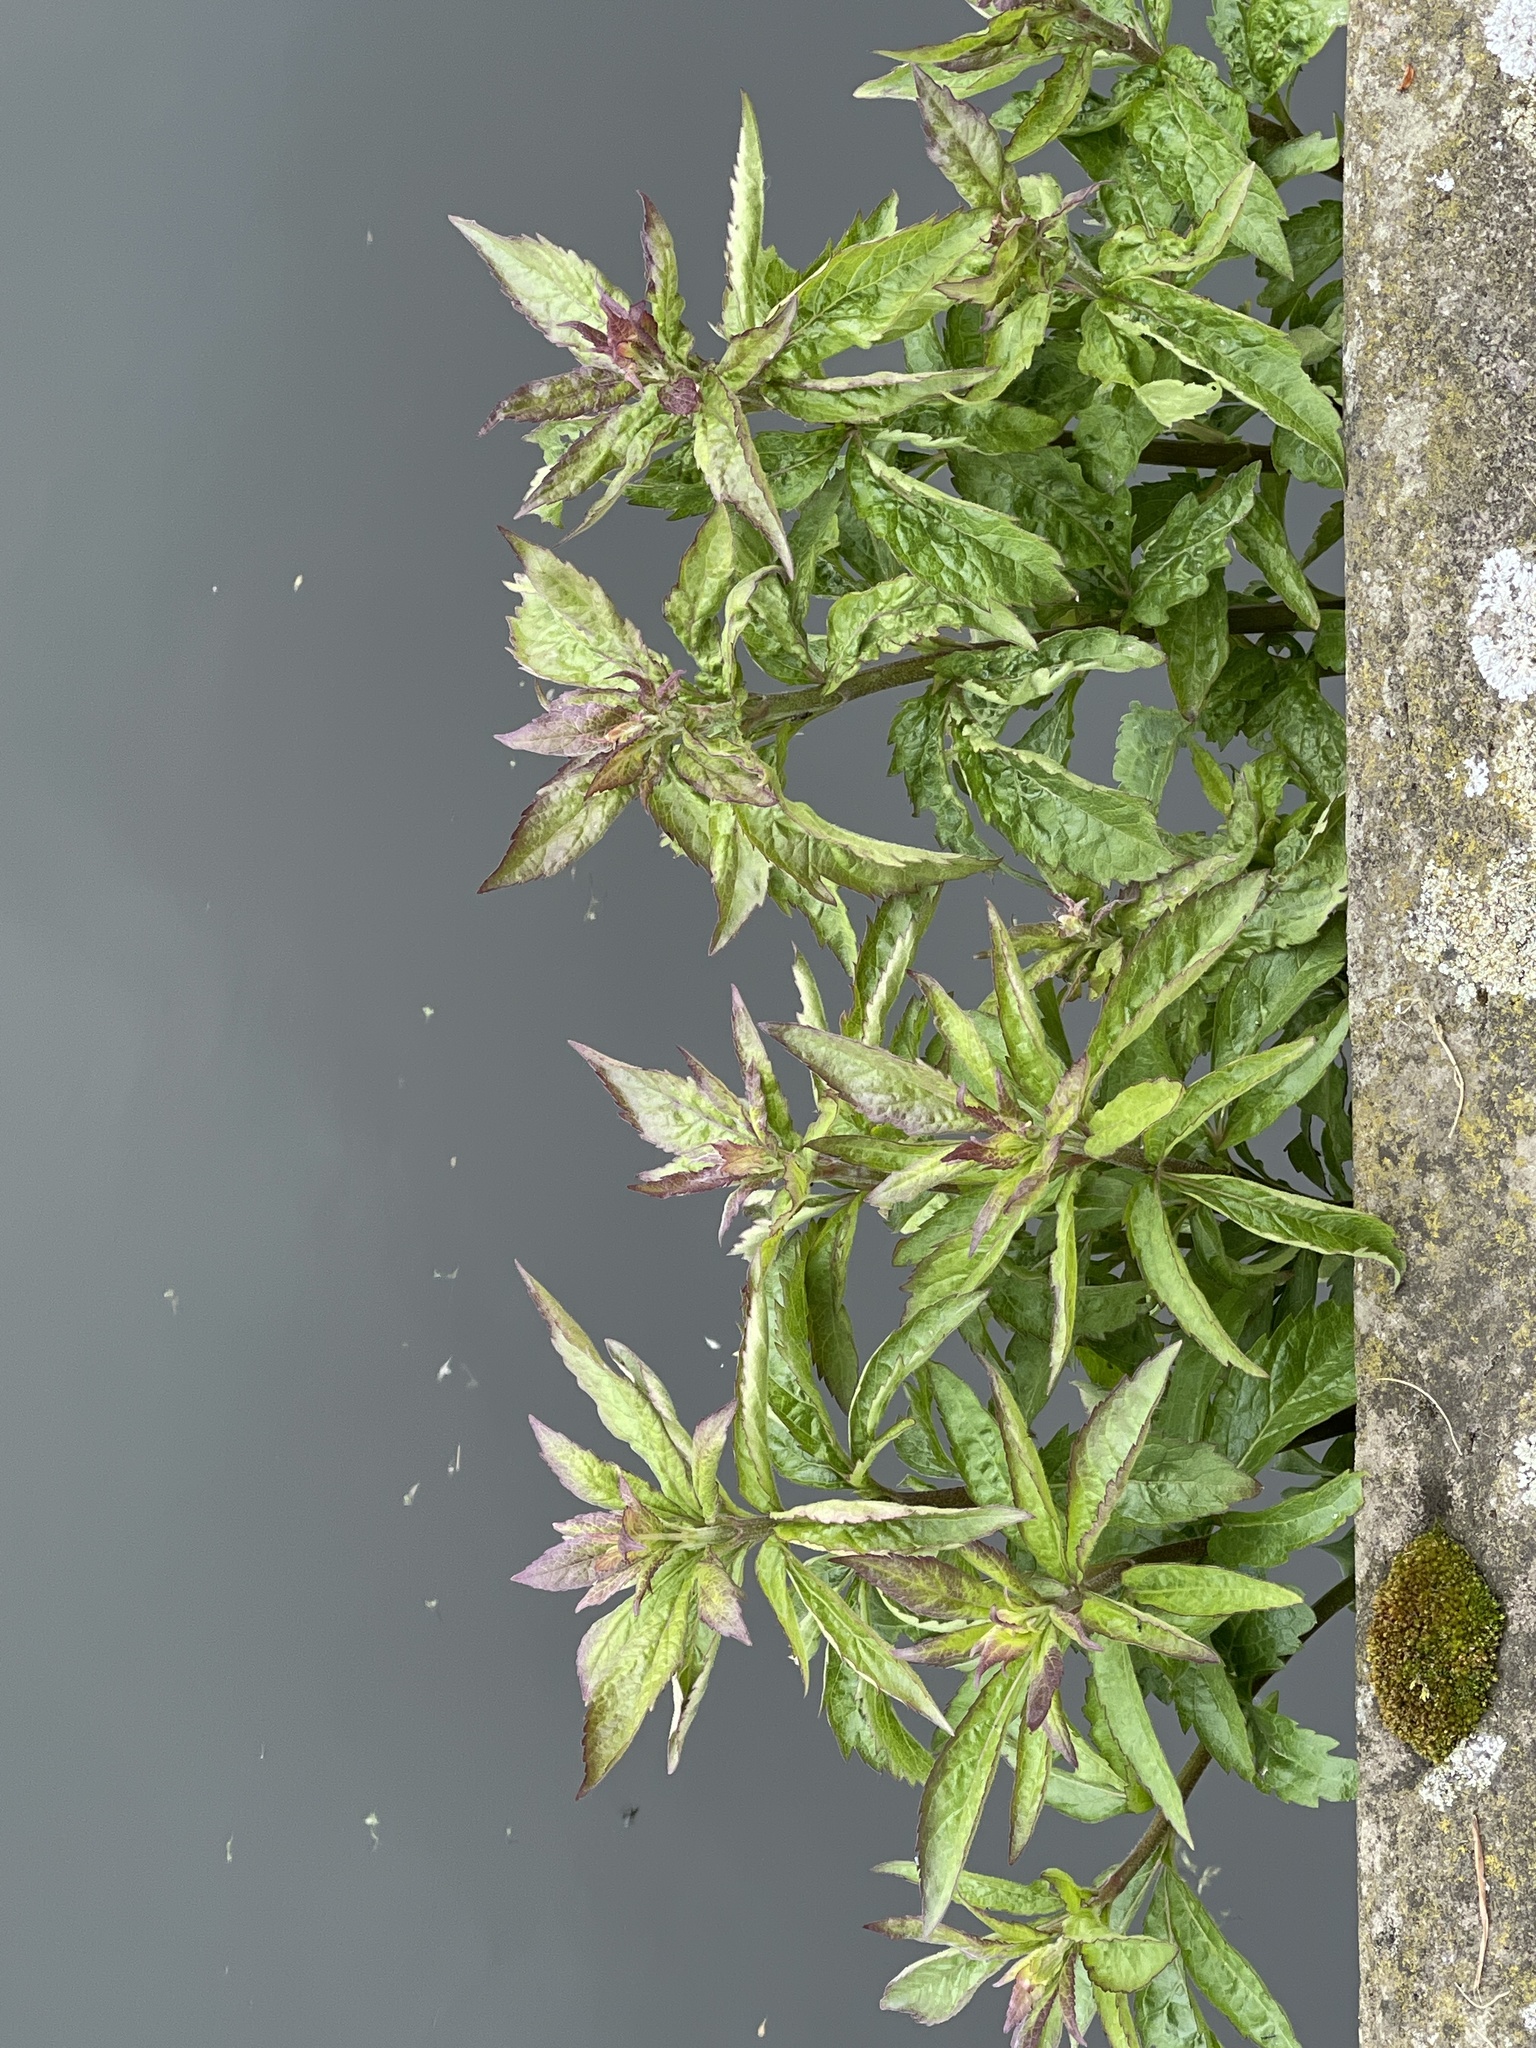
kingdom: Plantae
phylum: Tracheophyta
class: Magnoliopsida
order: Asterales
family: Asteraceae
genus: Eupatorium
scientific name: Eupatorium cannabinum
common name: Hemp-agrimony
